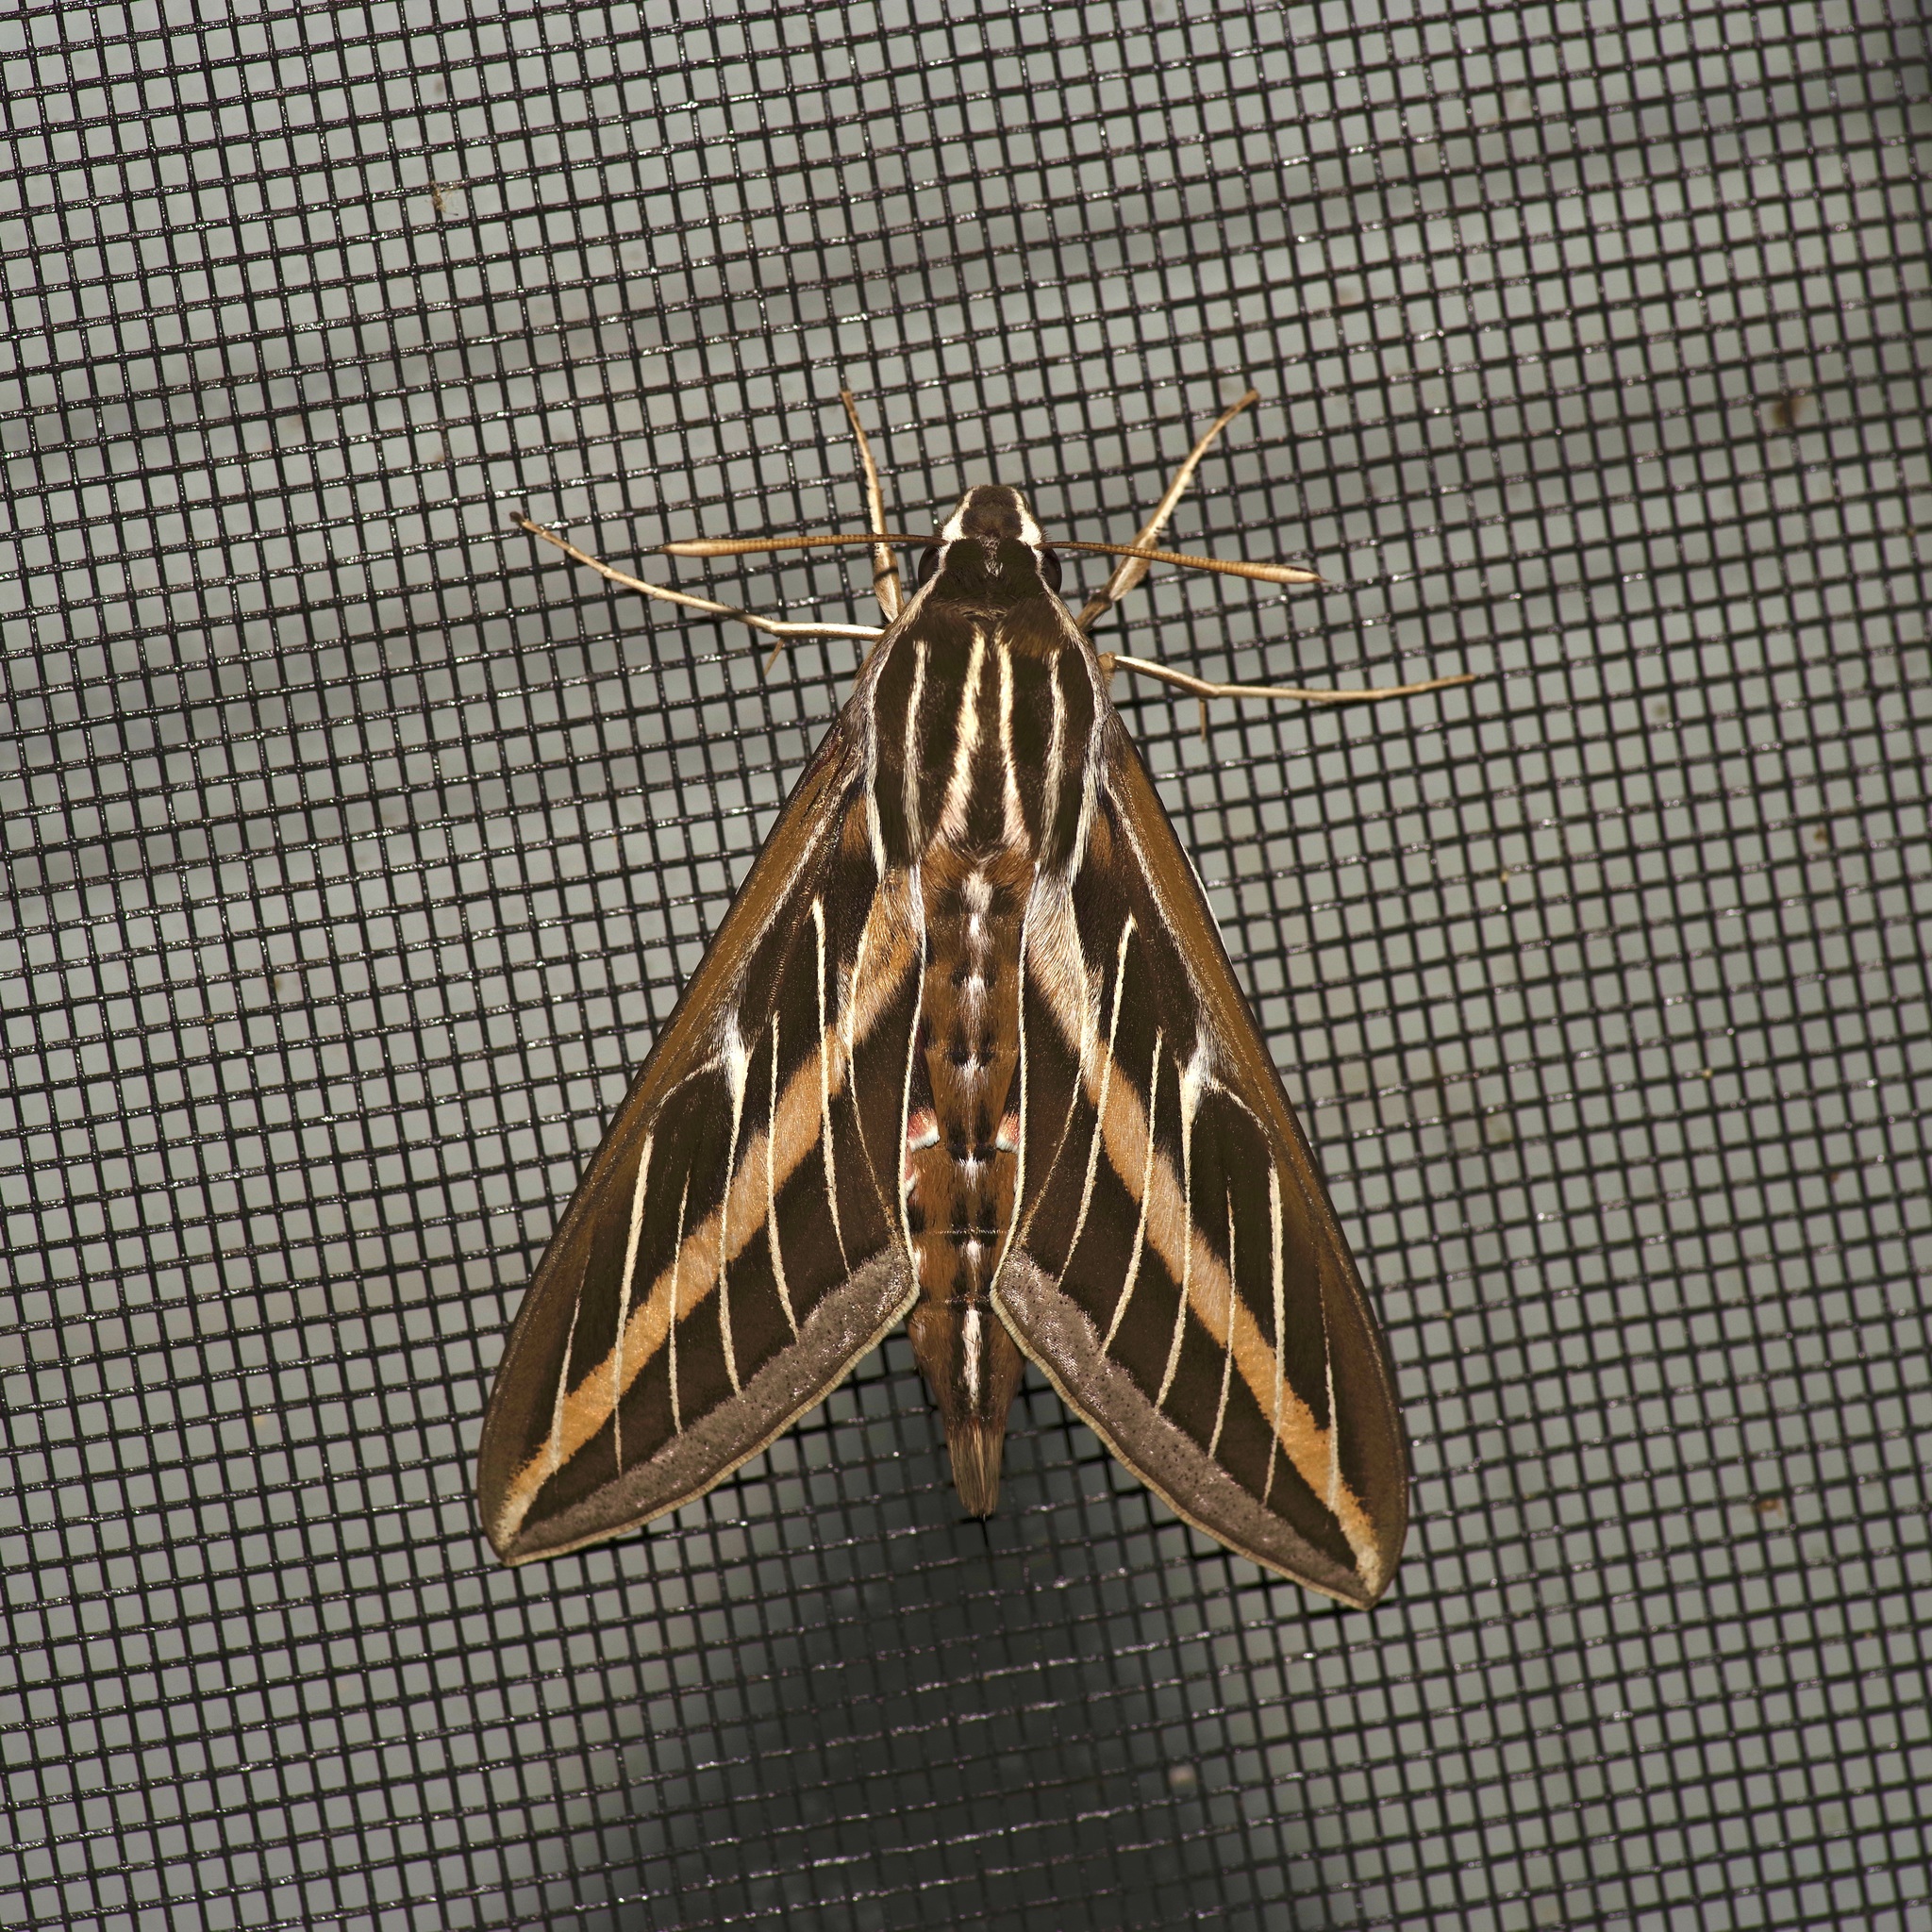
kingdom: Animalia
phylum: Arthropoda
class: Insecta
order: Lepidoptera
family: Sphingidae
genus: Hyles
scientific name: Hyles lineata
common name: White-lined sphinx
